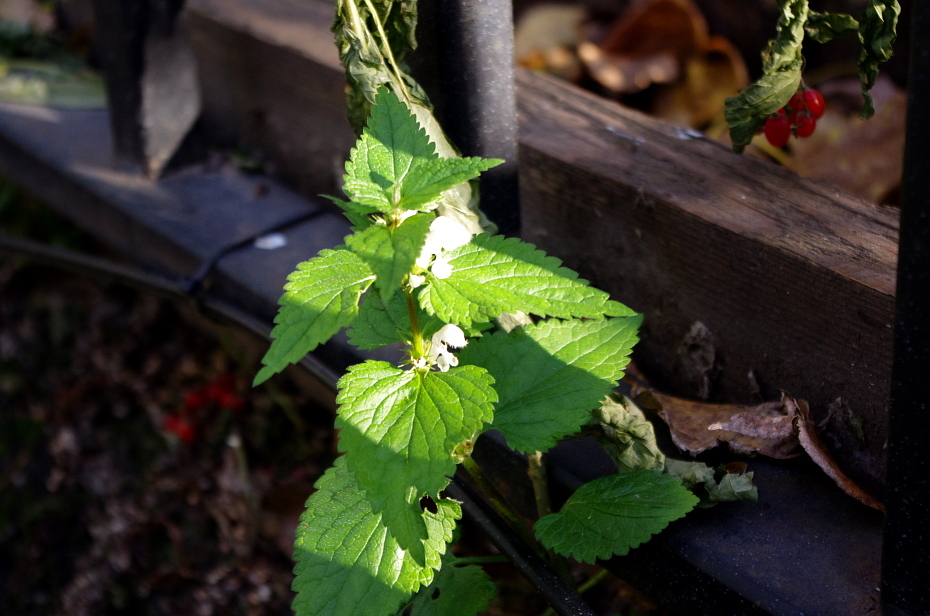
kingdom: Plantae
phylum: Tracheophyta
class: Magnoliopsida
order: Lamiales
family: Lamiaceae
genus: Lamium
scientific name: Lamium album
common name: White dead-nettle
